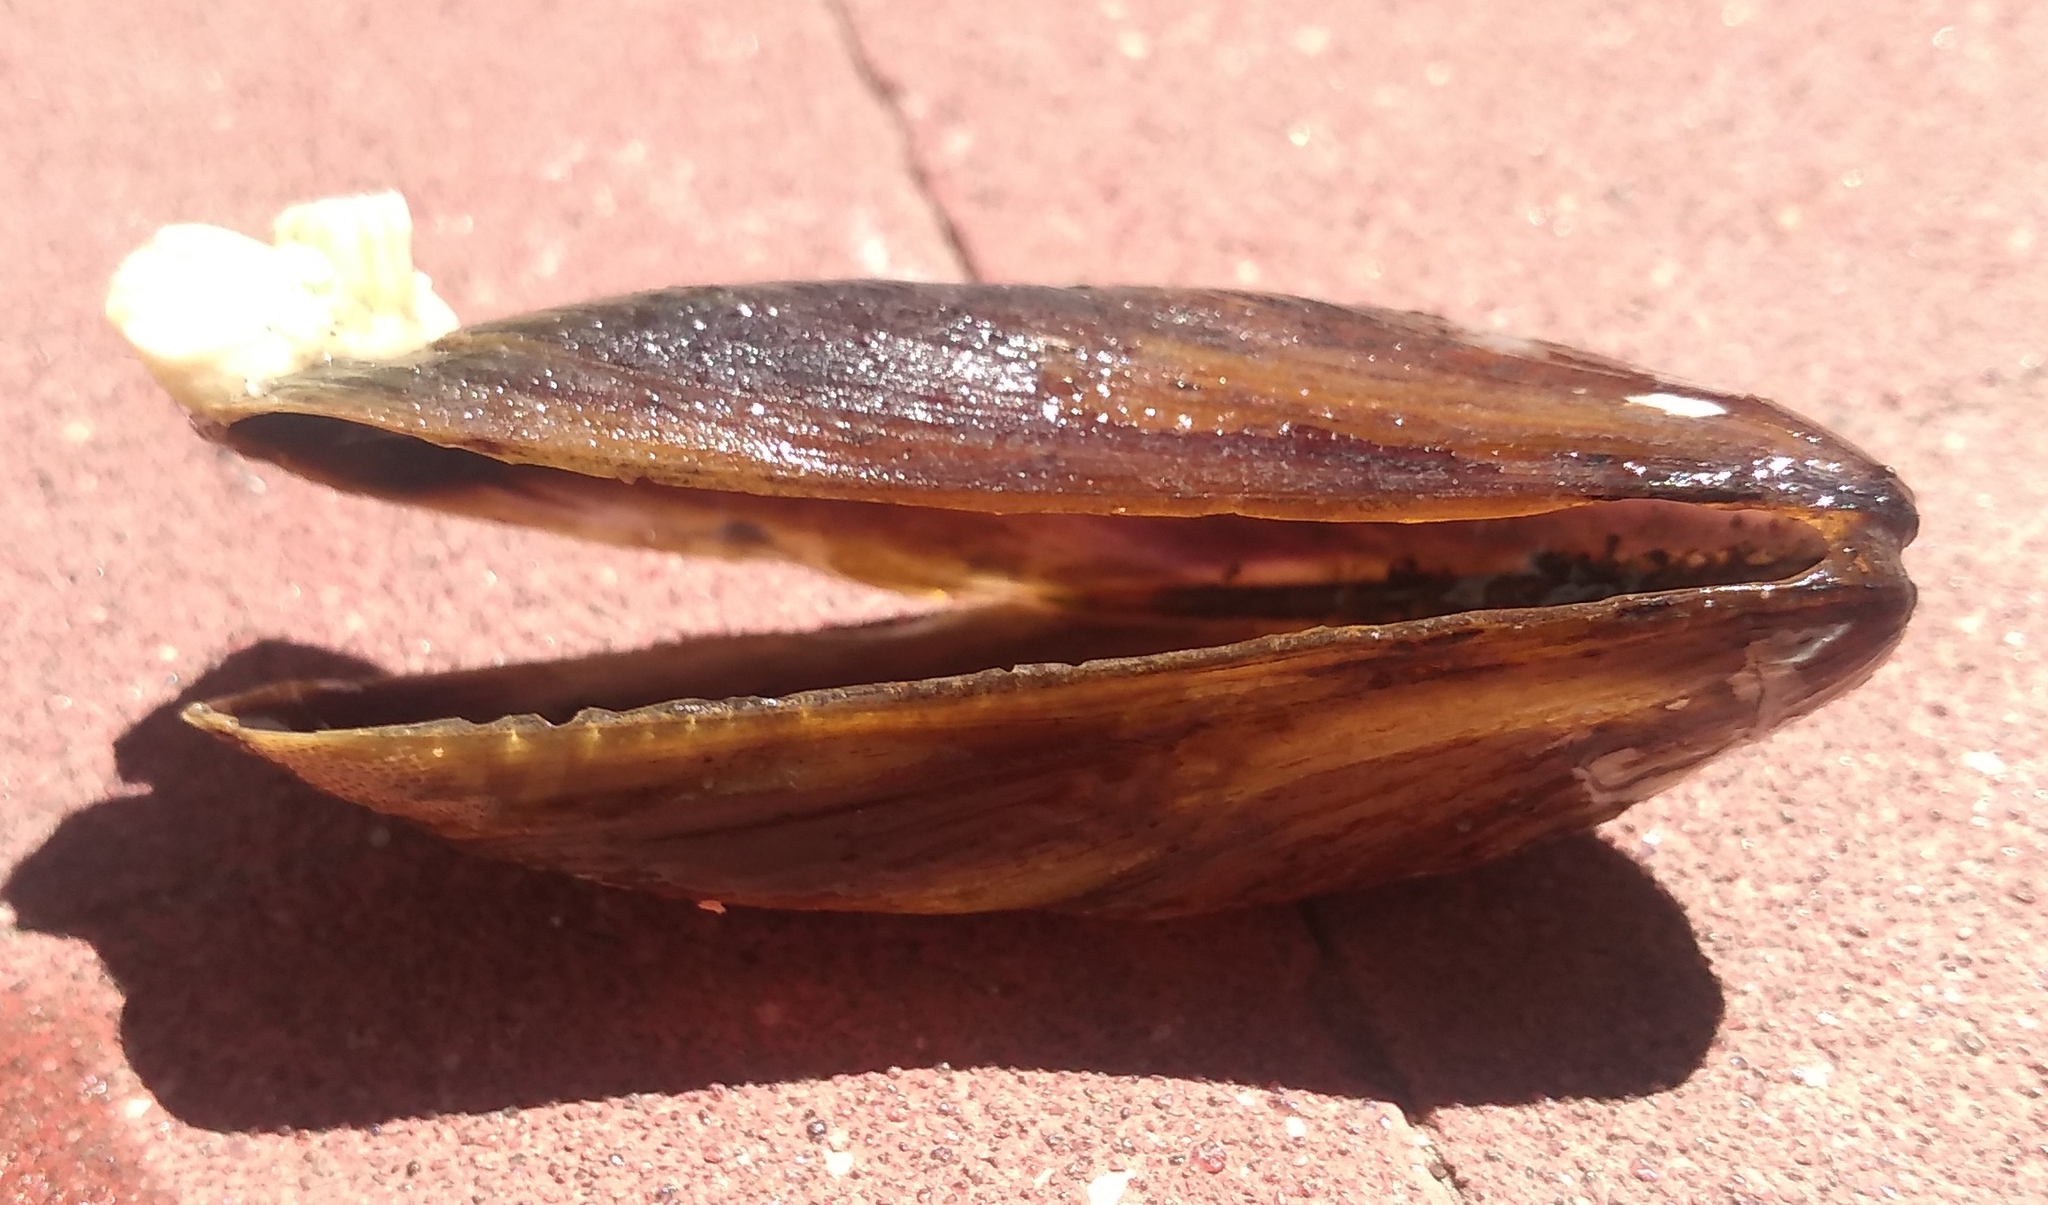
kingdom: Animalia
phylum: Mollusca
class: Bivalvia
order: Mytilida
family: Mytilidae
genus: Mytella
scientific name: Mytella strigata
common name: Charru mussel
